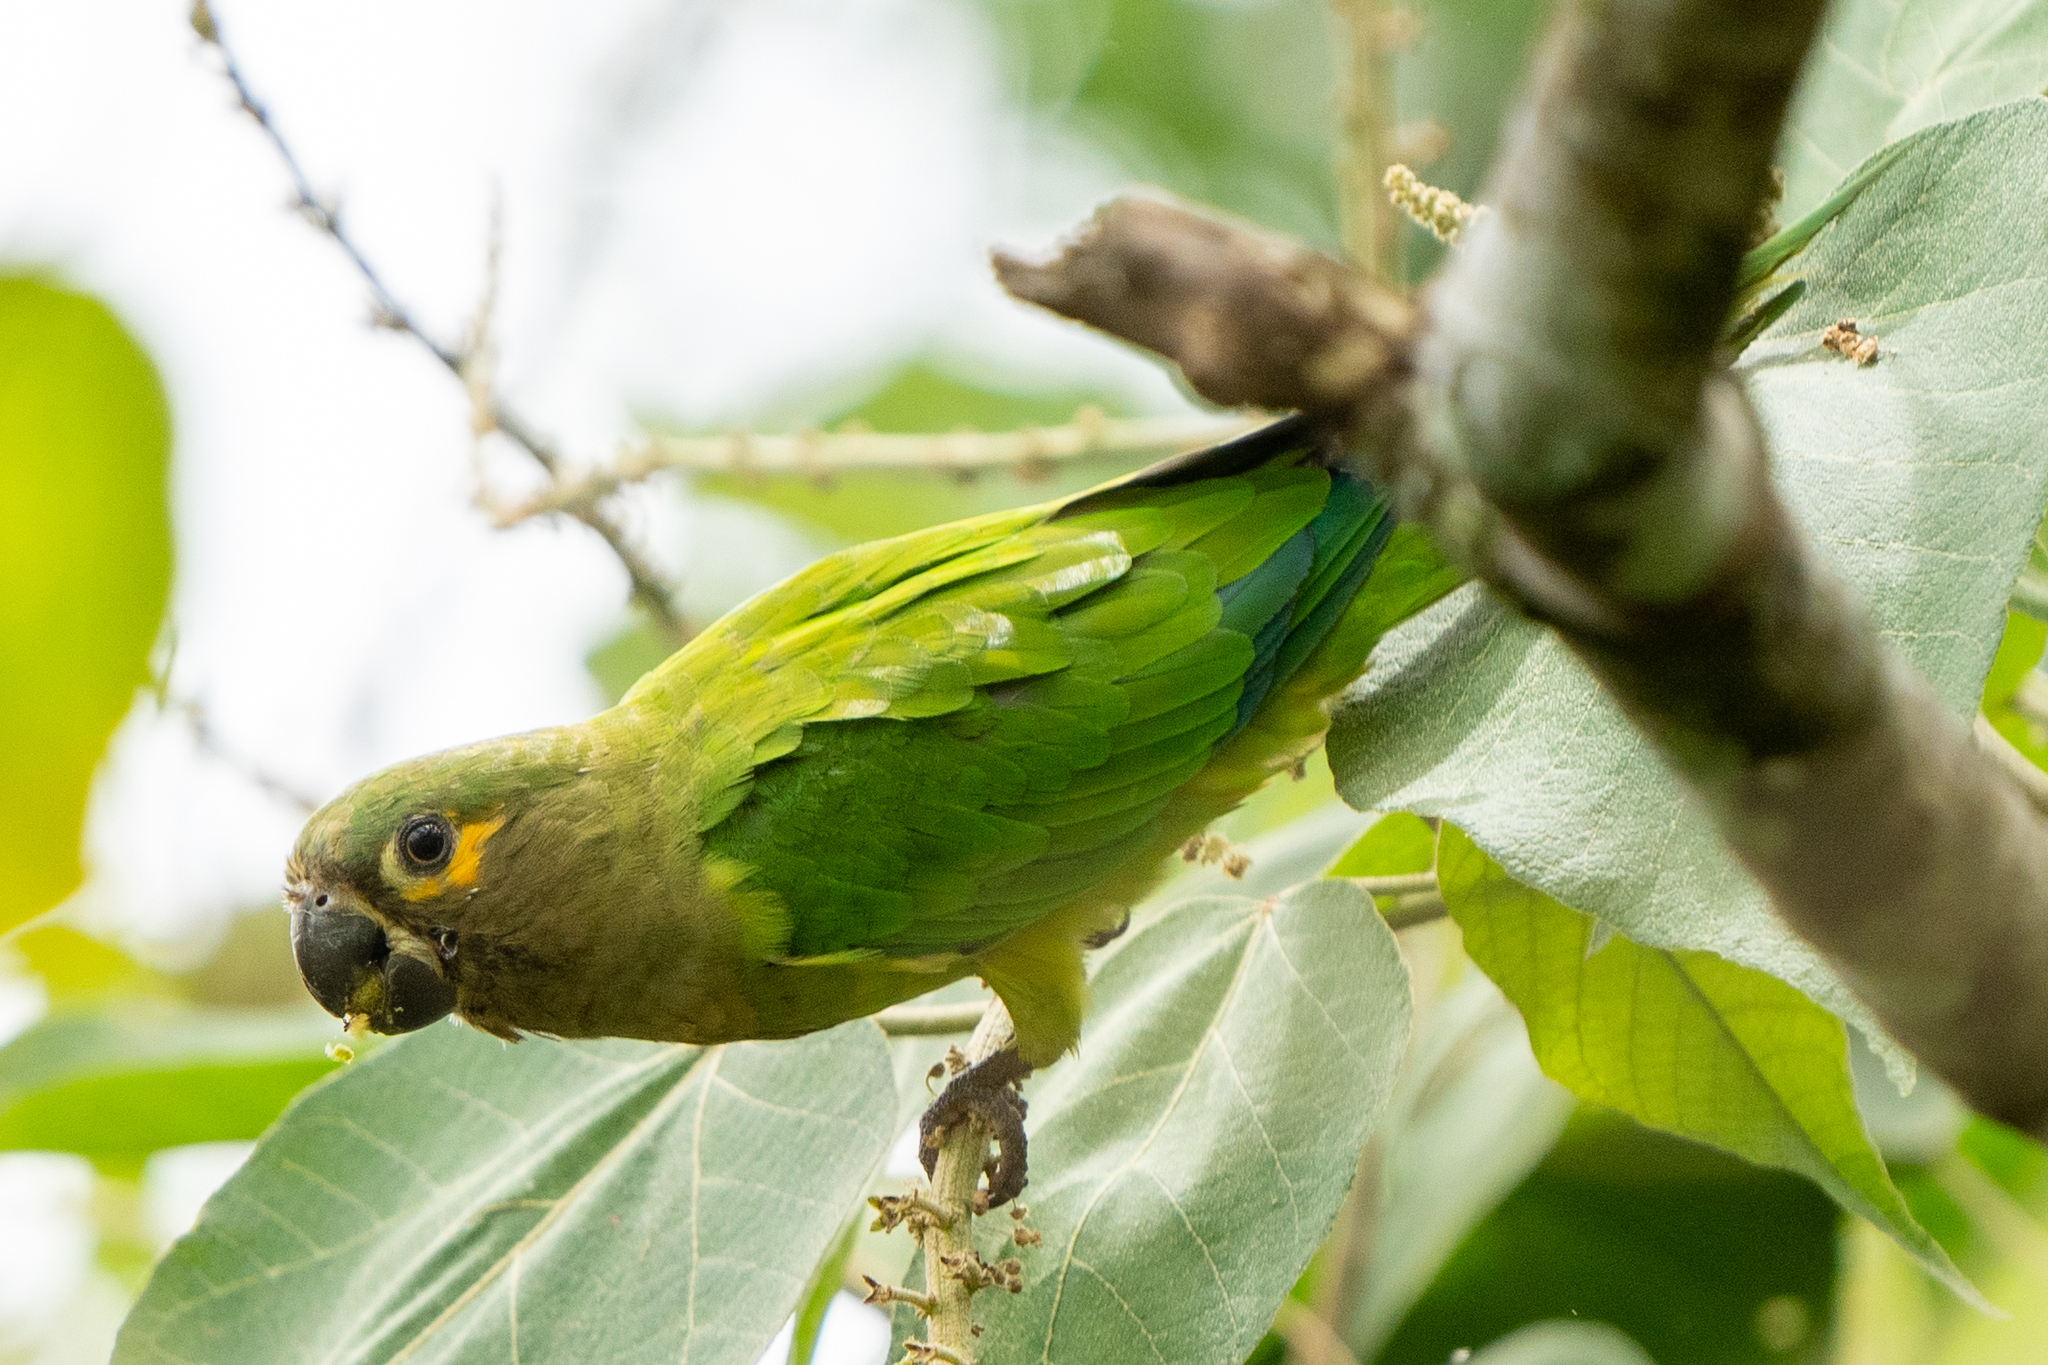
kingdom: Animalia
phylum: Chordata
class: Aves
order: Psittaciformes
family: Psittacidae
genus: Aratinga
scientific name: Aratinga pertinax
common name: Brown-throated parakeet
